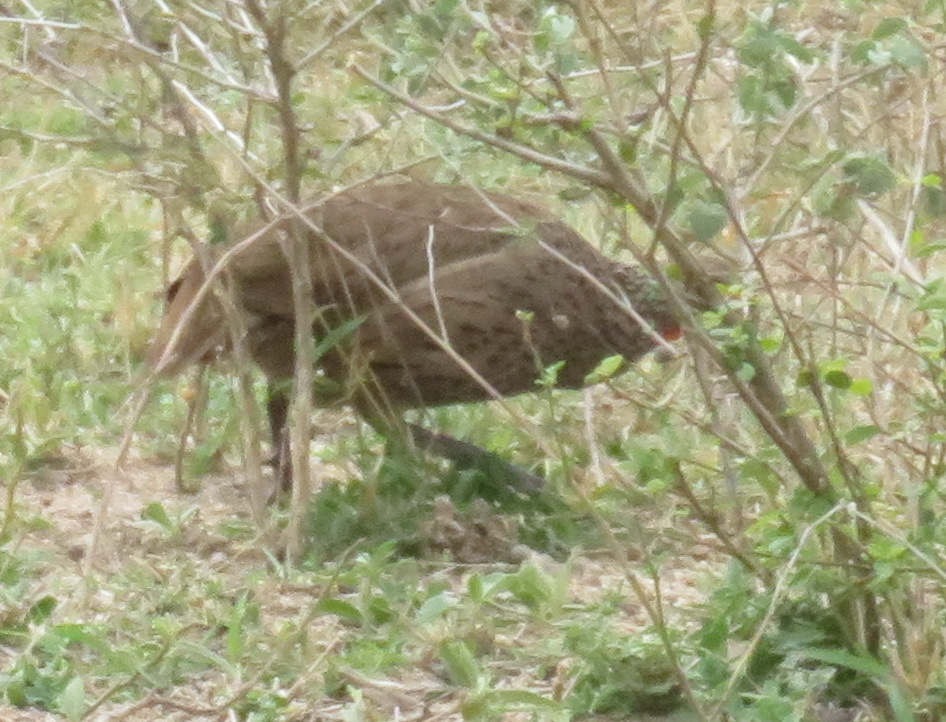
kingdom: Animalia
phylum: Chordata
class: Aves
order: Galliformes
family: Phasianidae
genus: Pternistis
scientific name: Pternistis swainsonii
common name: Swainson's spurfowl
